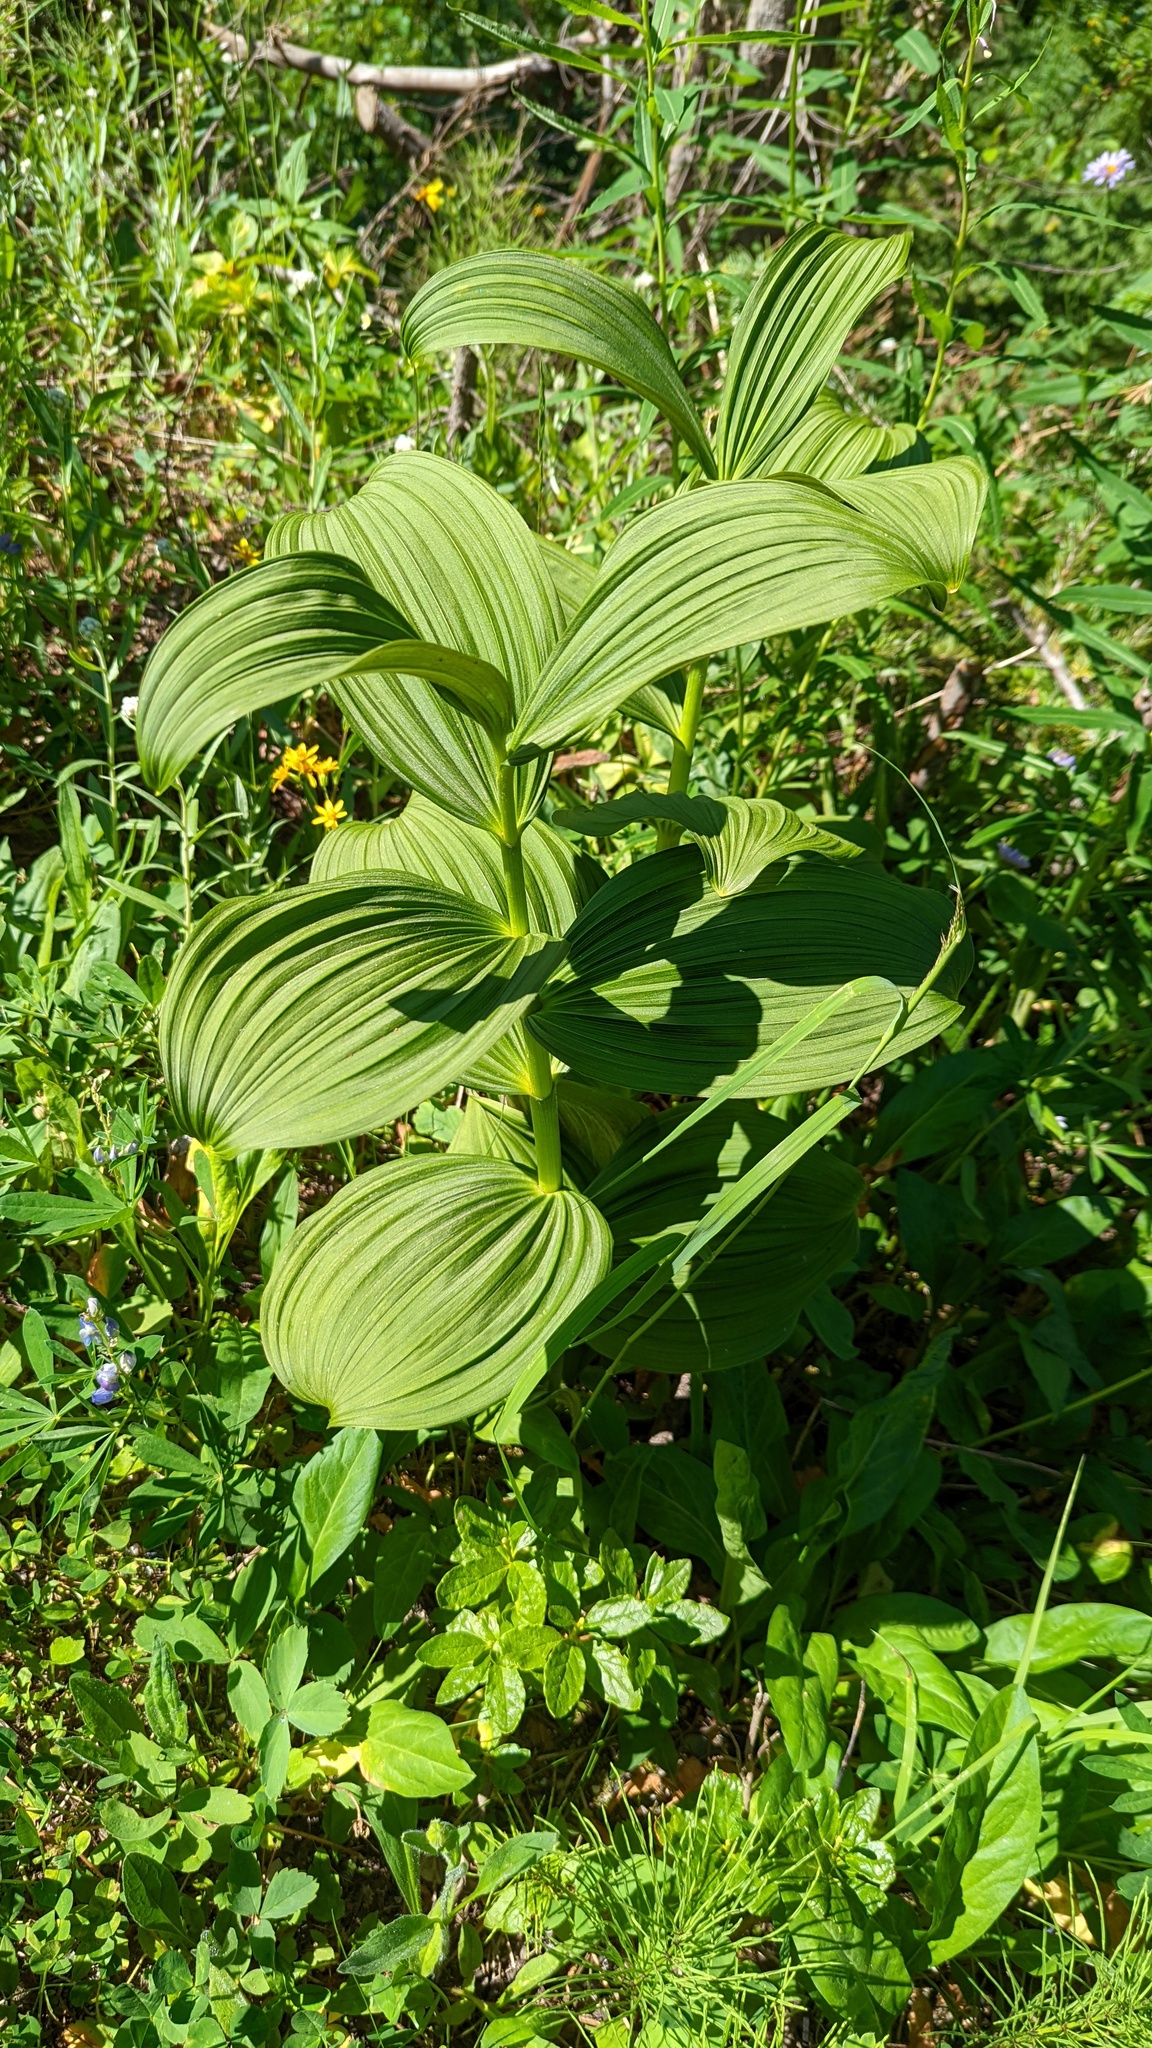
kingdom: Plantae
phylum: Tracheophyta
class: Liliopsida
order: Liliales
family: Melanthiaceae
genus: Veratrum
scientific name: Veratrum viride
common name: American false hellebore
